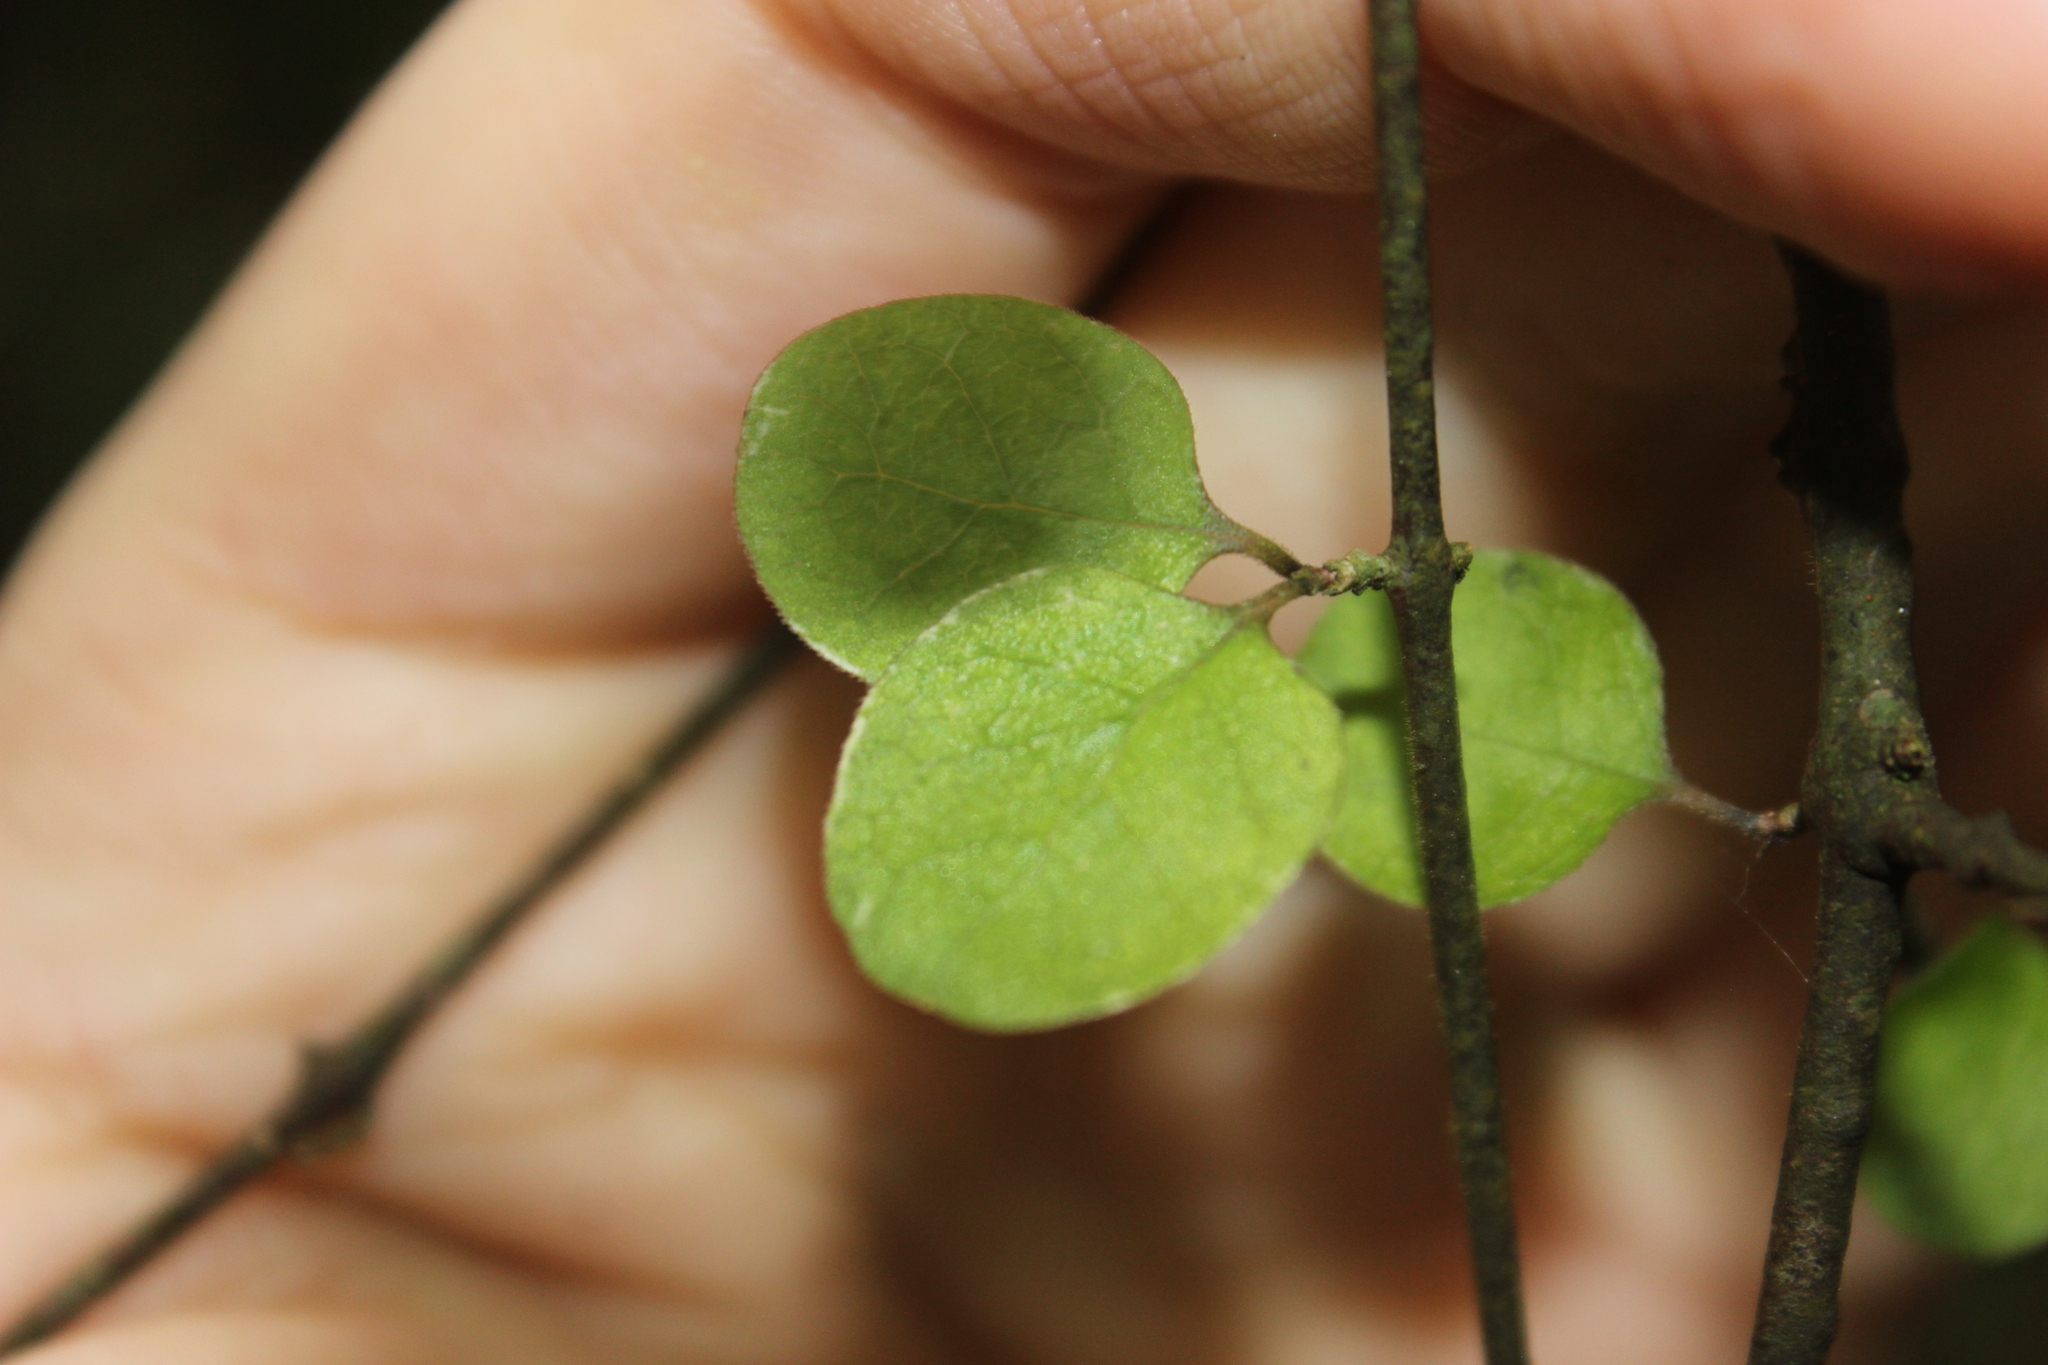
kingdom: Plantae
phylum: Tracheophyta
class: Magnoliopsida
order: Gentianales
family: Rubiaceae
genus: Coprosma
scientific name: Coprosma crassifolia
